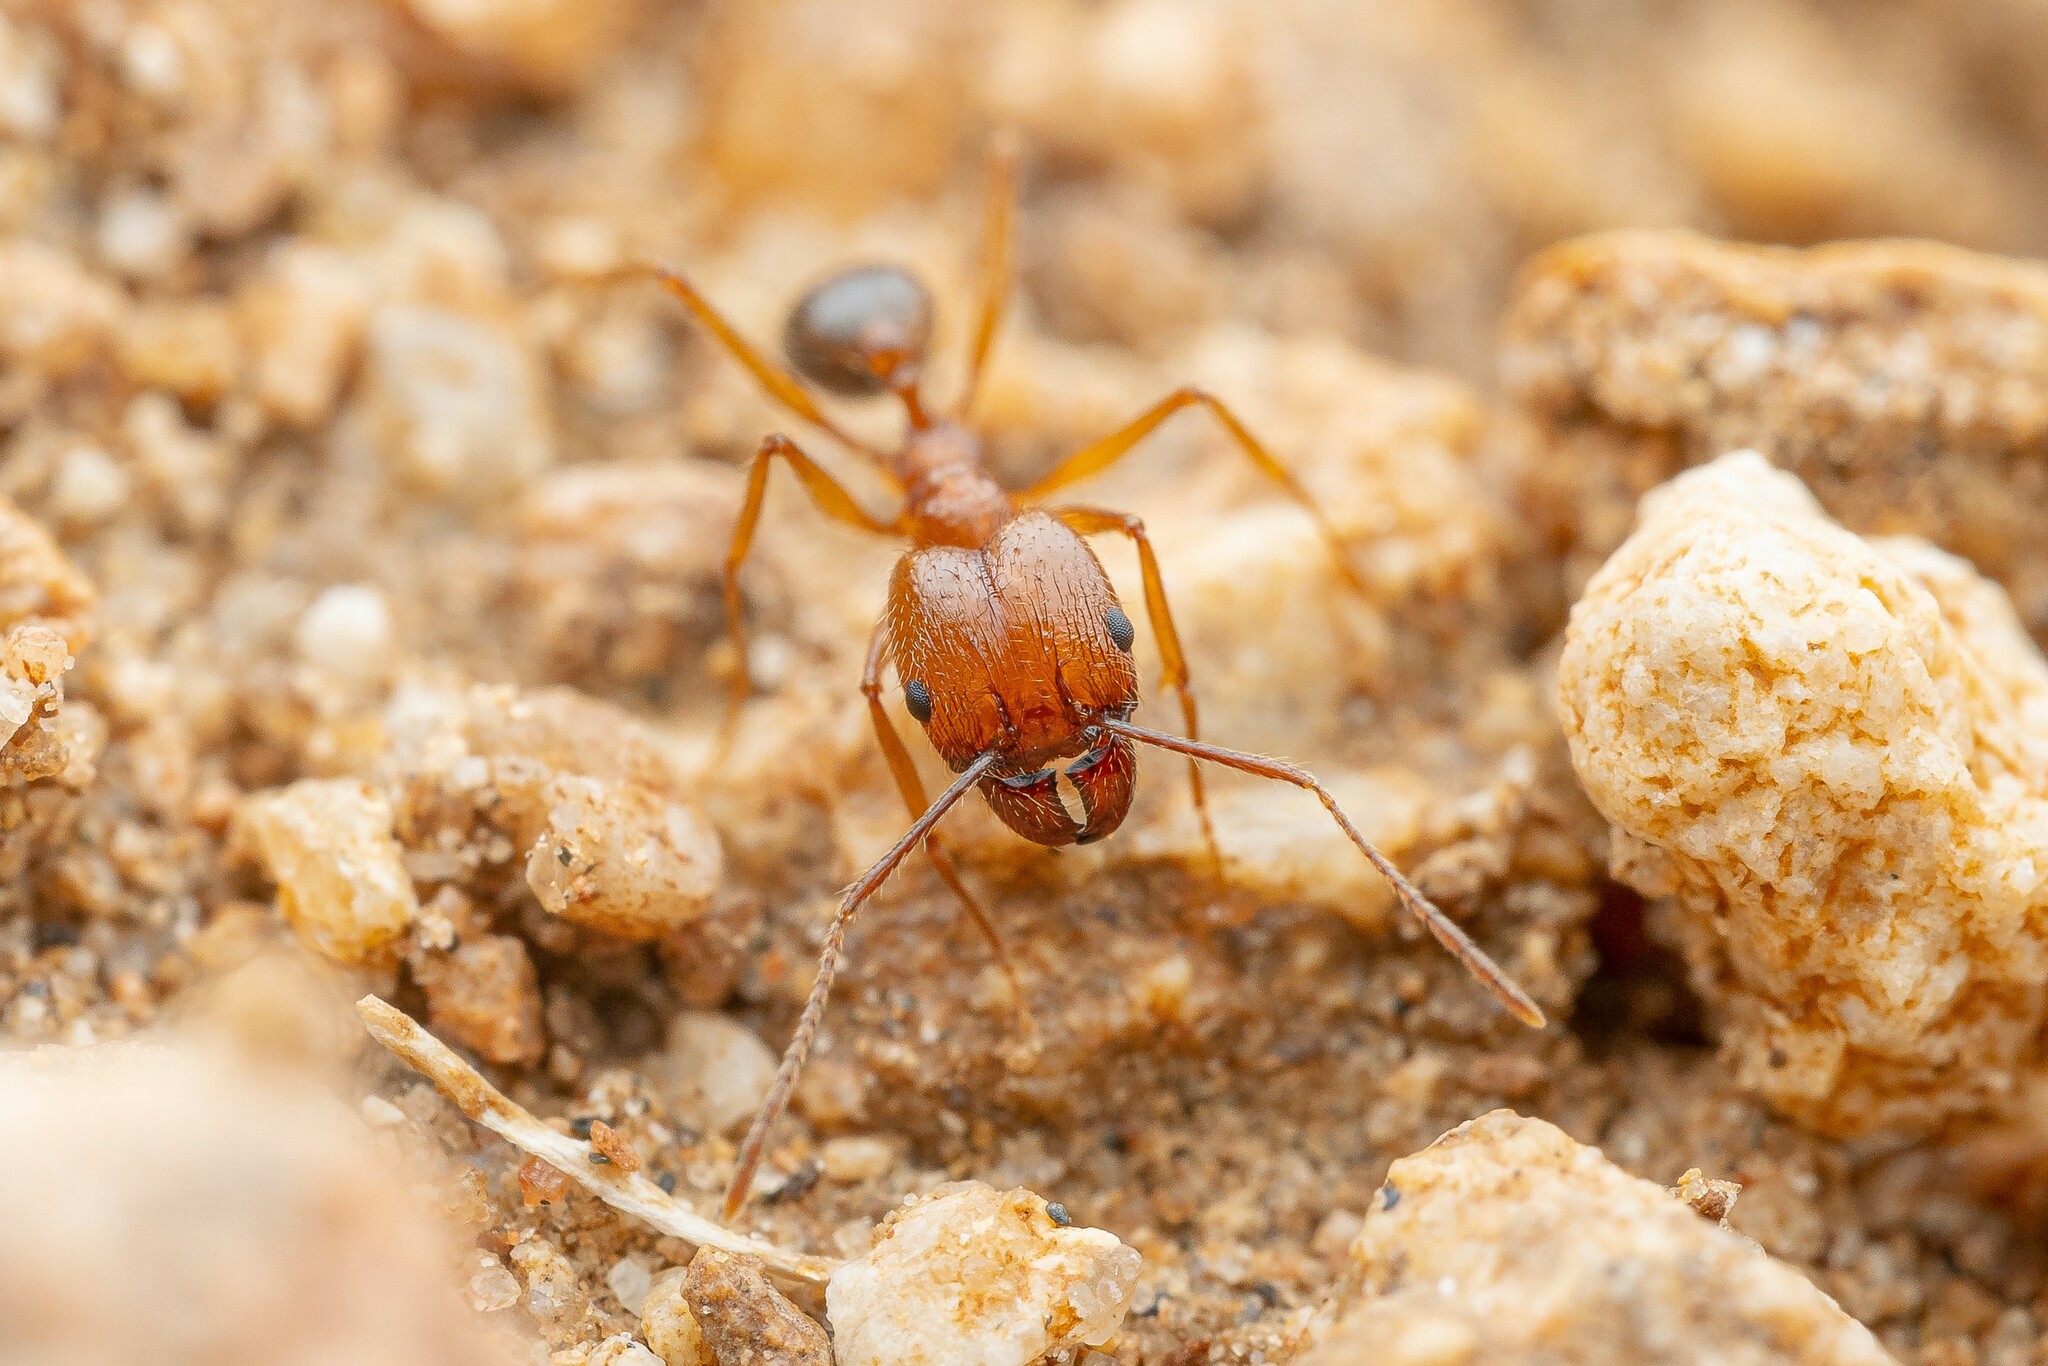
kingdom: Animalia
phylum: Arthropoda
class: Insecta
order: Hymenoptera
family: Formicidae
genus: Pheidole
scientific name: Pheidole desertorum
